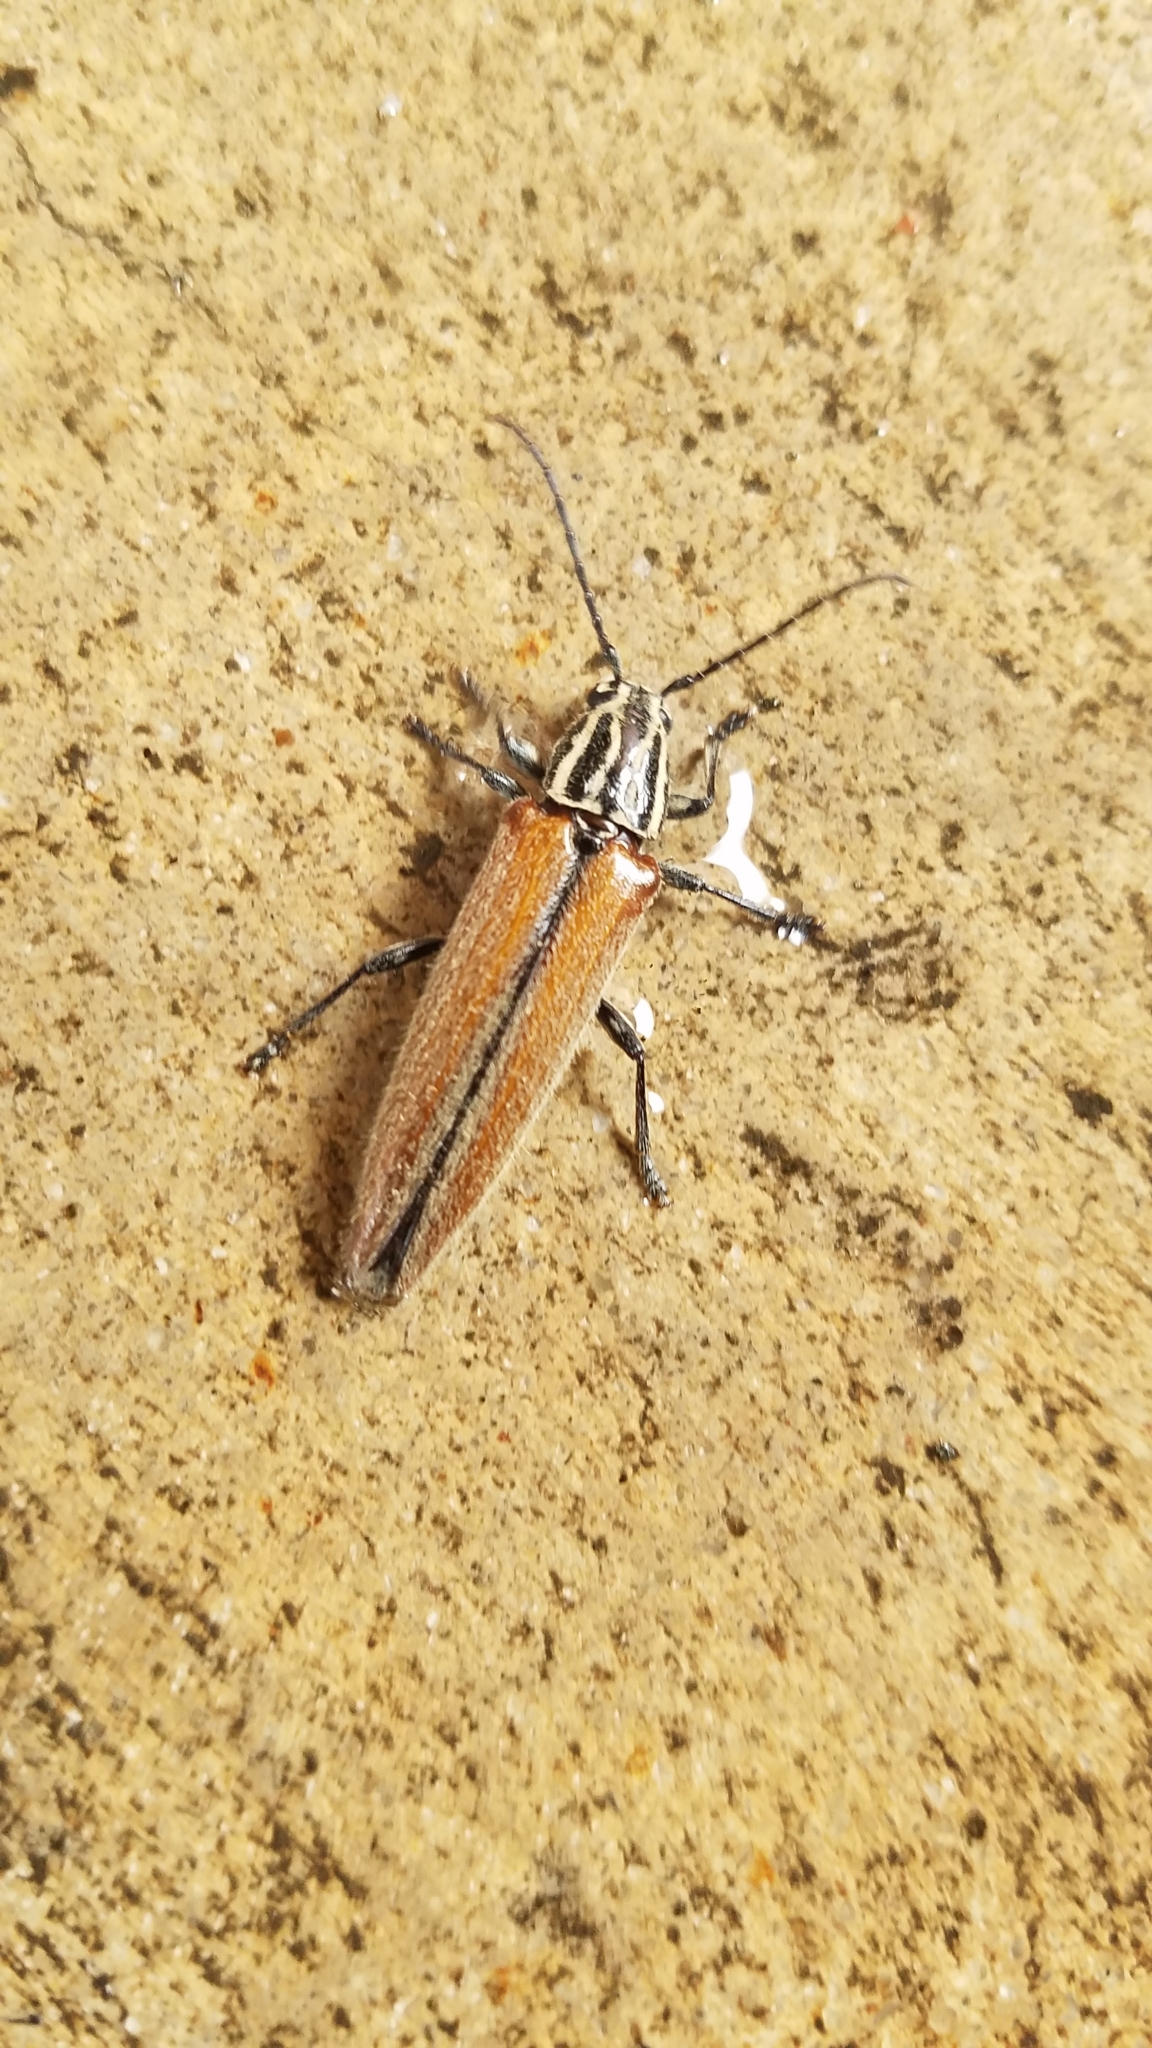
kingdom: Animalia
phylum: Arthropoda
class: Insecta
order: Coleoptera
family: Cerambycidae
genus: Osmopleura
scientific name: Osmopleura chamaeropis
